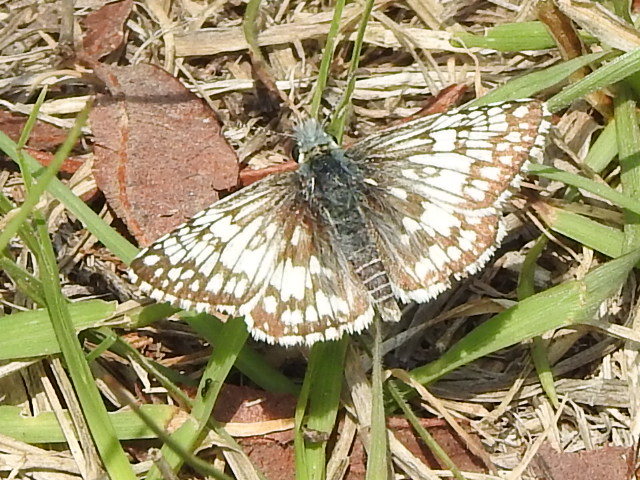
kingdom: Animalia
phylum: Arthropoda
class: Insecta
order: Lepidoptera
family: Hesperiidae
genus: Burnsius
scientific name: Burnsius
